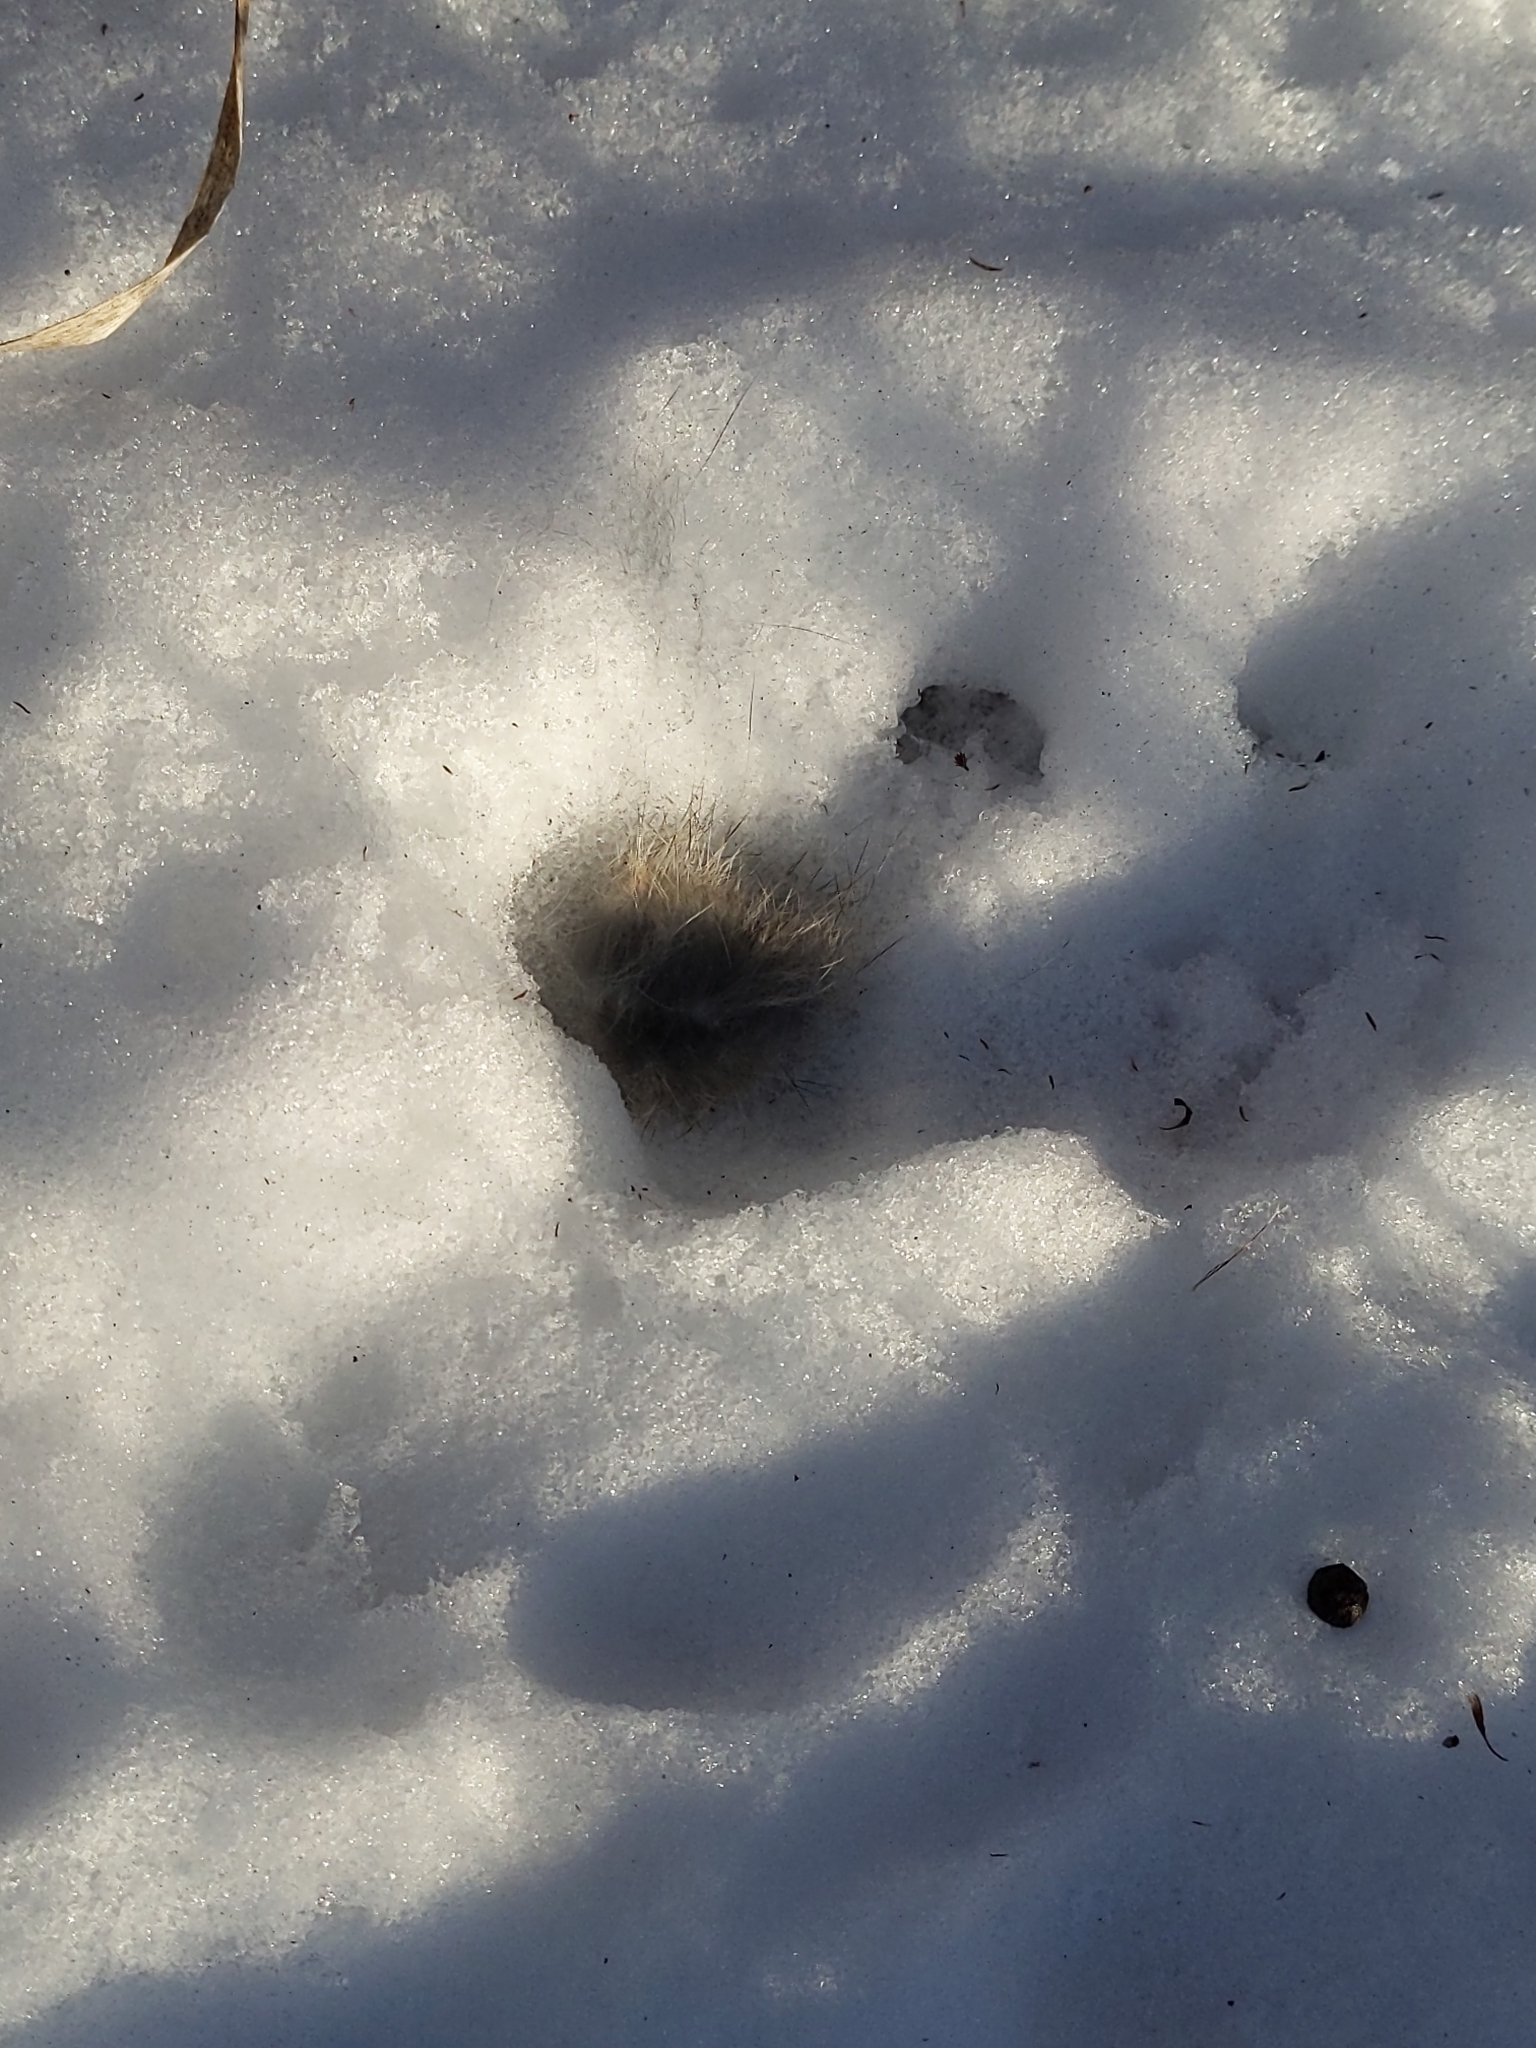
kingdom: Animalia
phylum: Chordata
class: Mammalia
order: Lagomorpha
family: Leporidae
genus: Sylvilagus
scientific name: Sylvilagus floridanus
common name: Eastern cottontail
